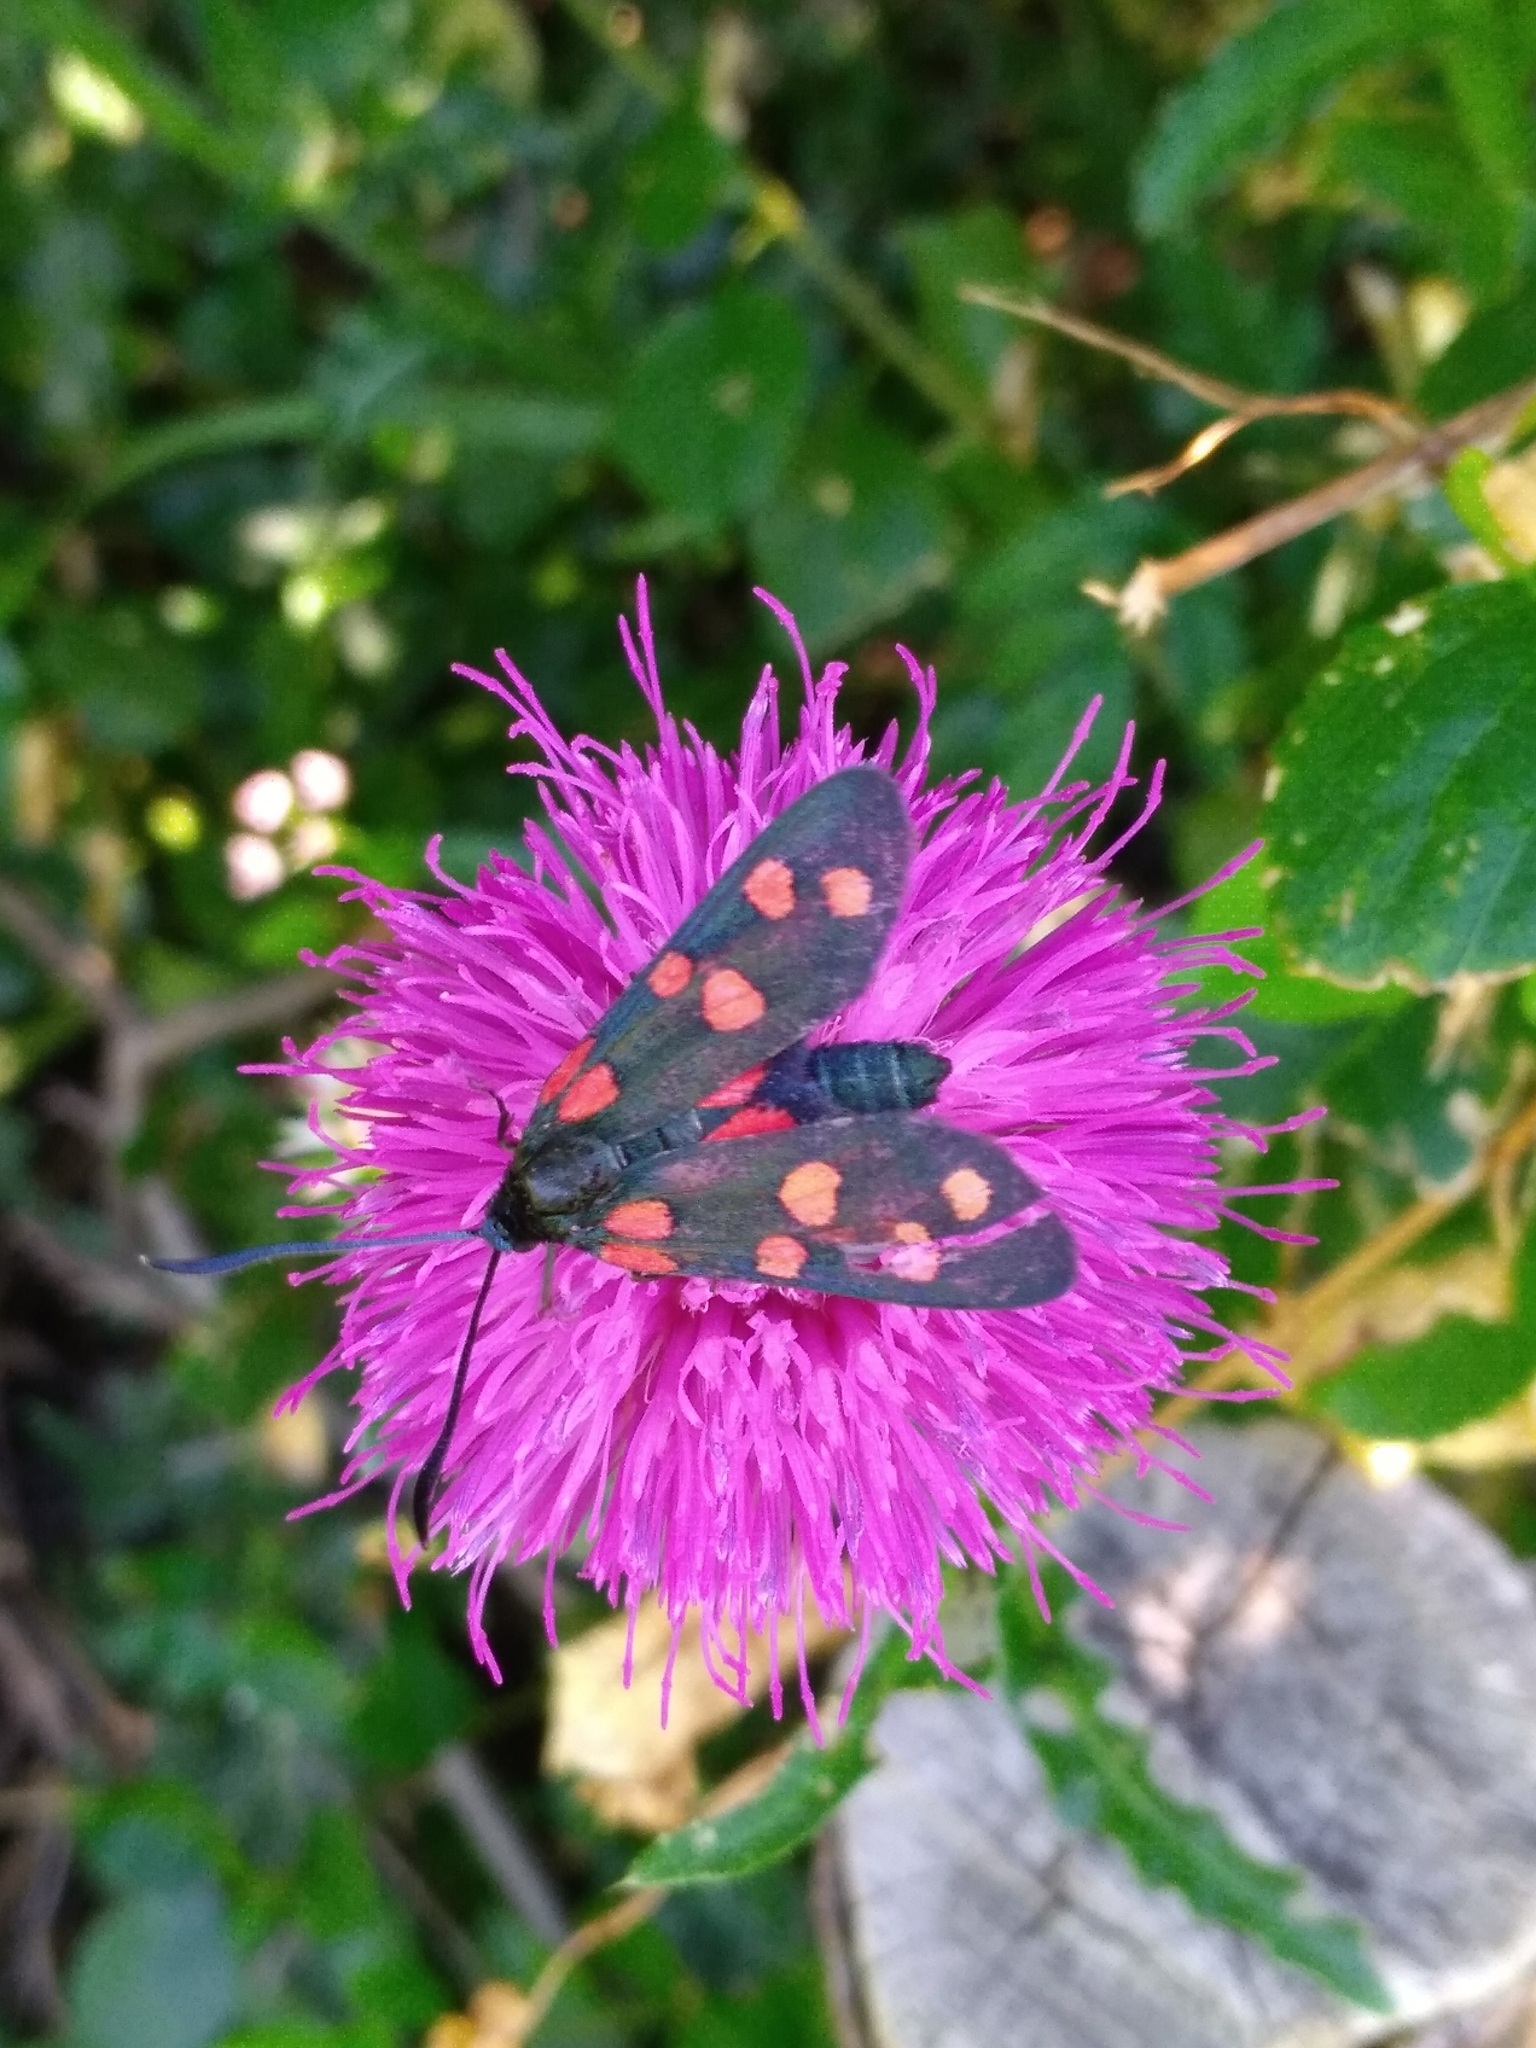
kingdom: Animalia
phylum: Arthropoda
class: Insecta
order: Lepidoptera
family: Zygaenidae
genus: Zygaena
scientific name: Zygaena transalpina
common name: Southern six spot burnet
